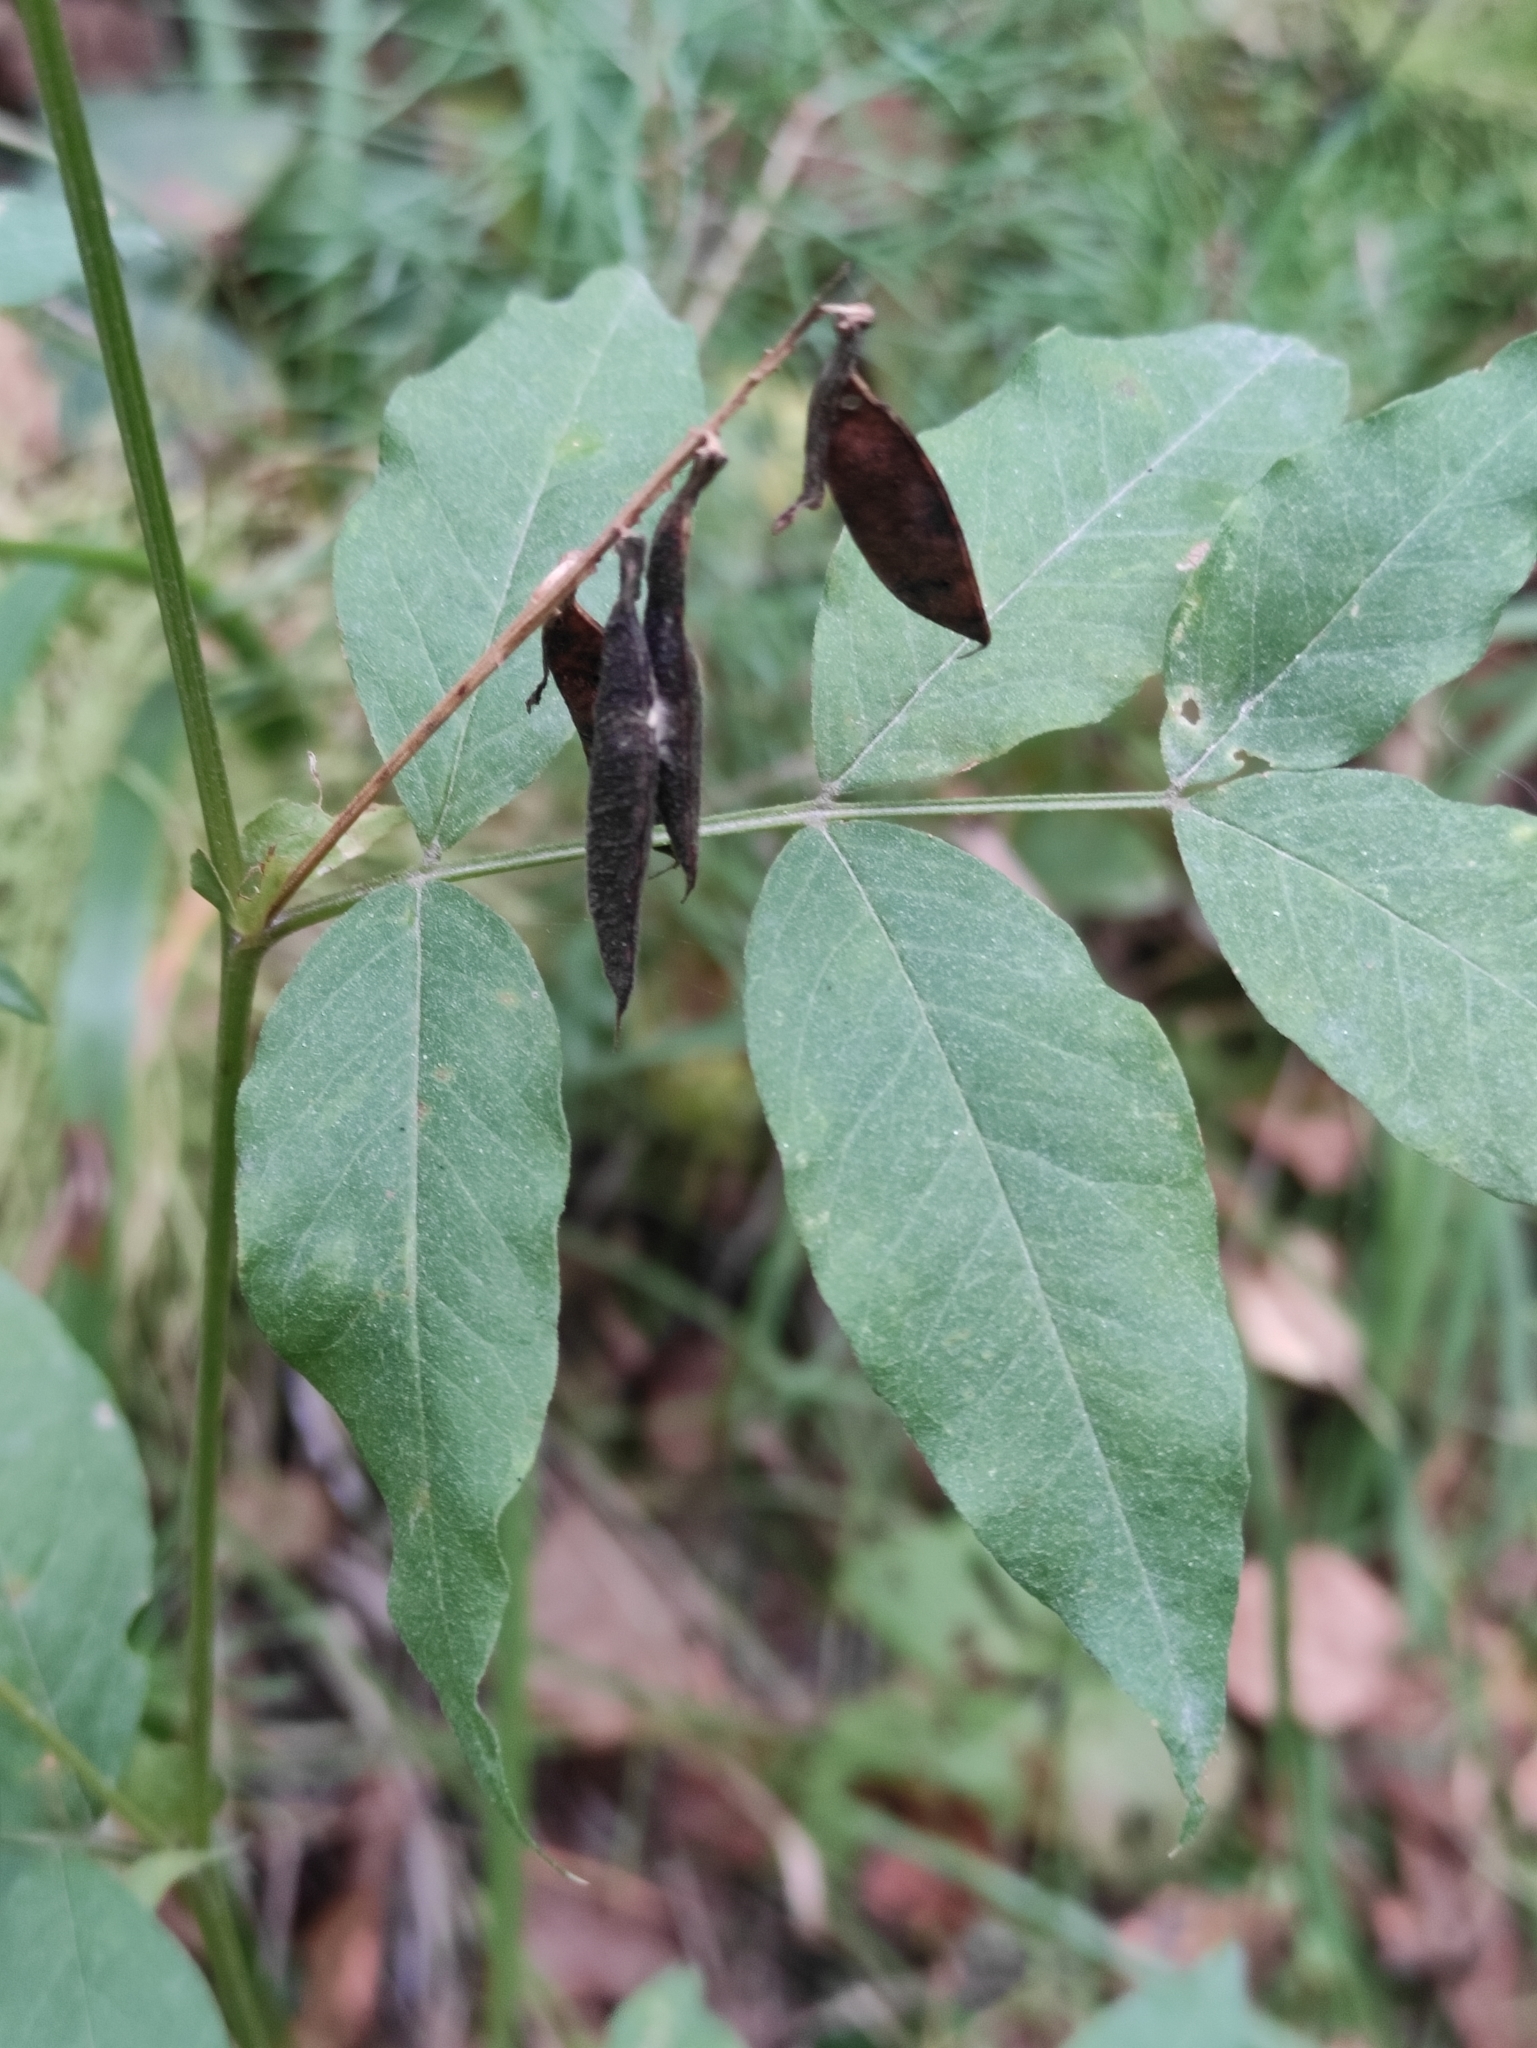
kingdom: Plantae
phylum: Tracheophyta
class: Magnoliopsida
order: Fabales
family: Fabaceae
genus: Vicia
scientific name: Vicia ramuliflora
